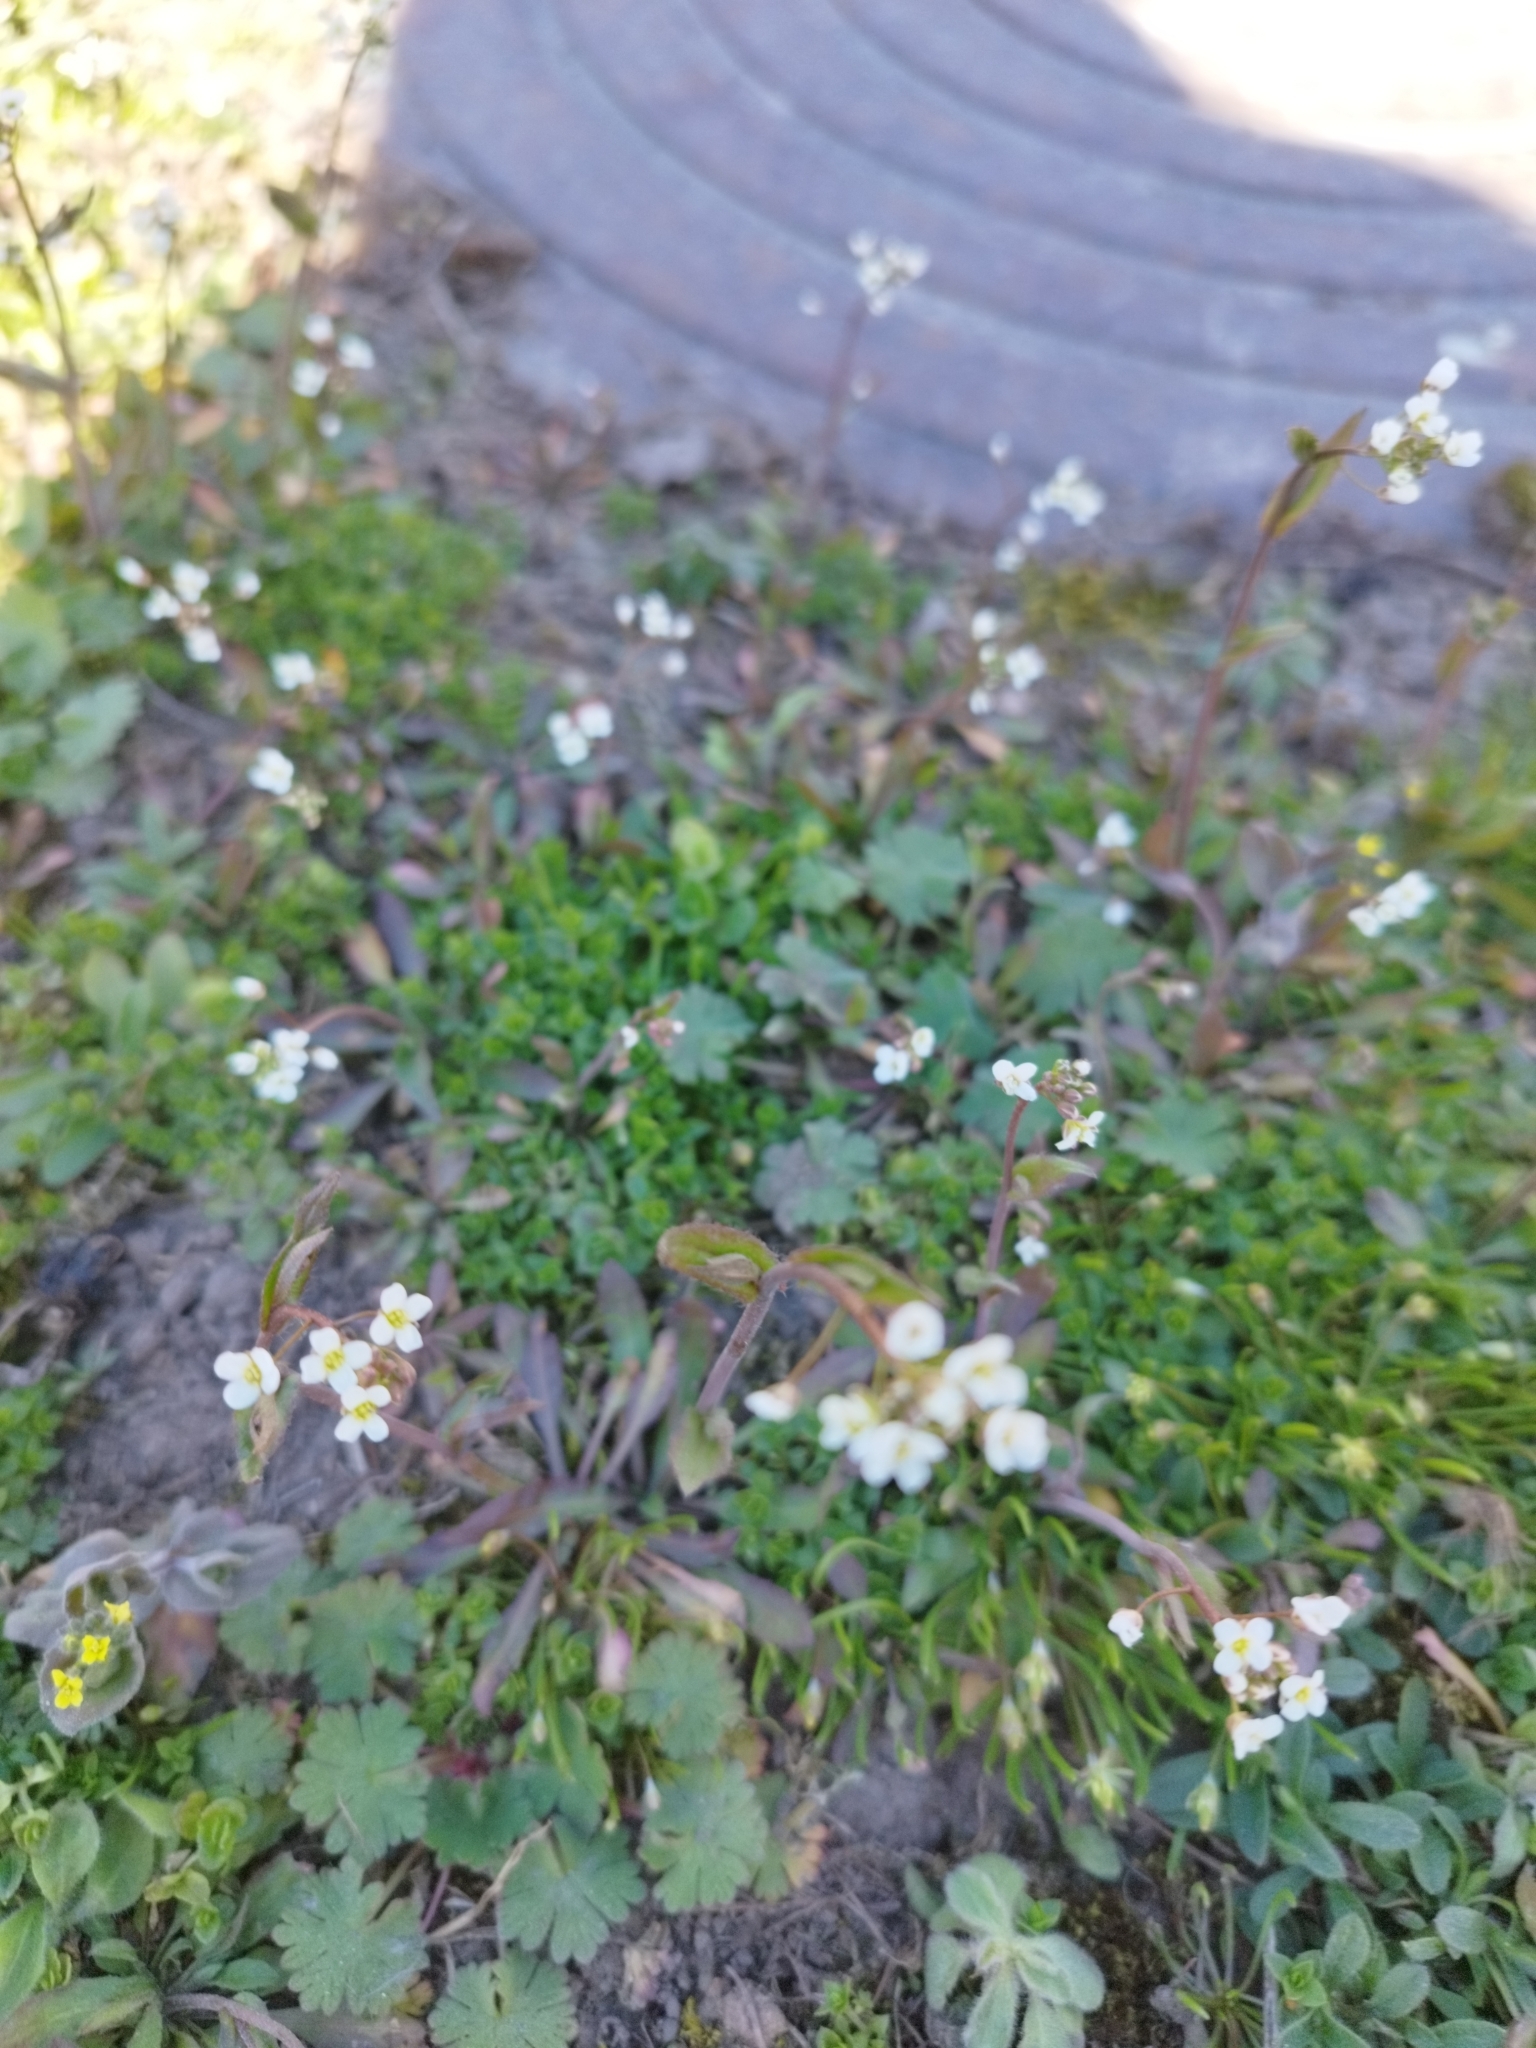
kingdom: Plantae
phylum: Tracheophyta
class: Magnoliopsida
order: Brassicales
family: Brassicaceae
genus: Capsella
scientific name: Capsella bursa-pastoris
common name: Shepherd's purse
